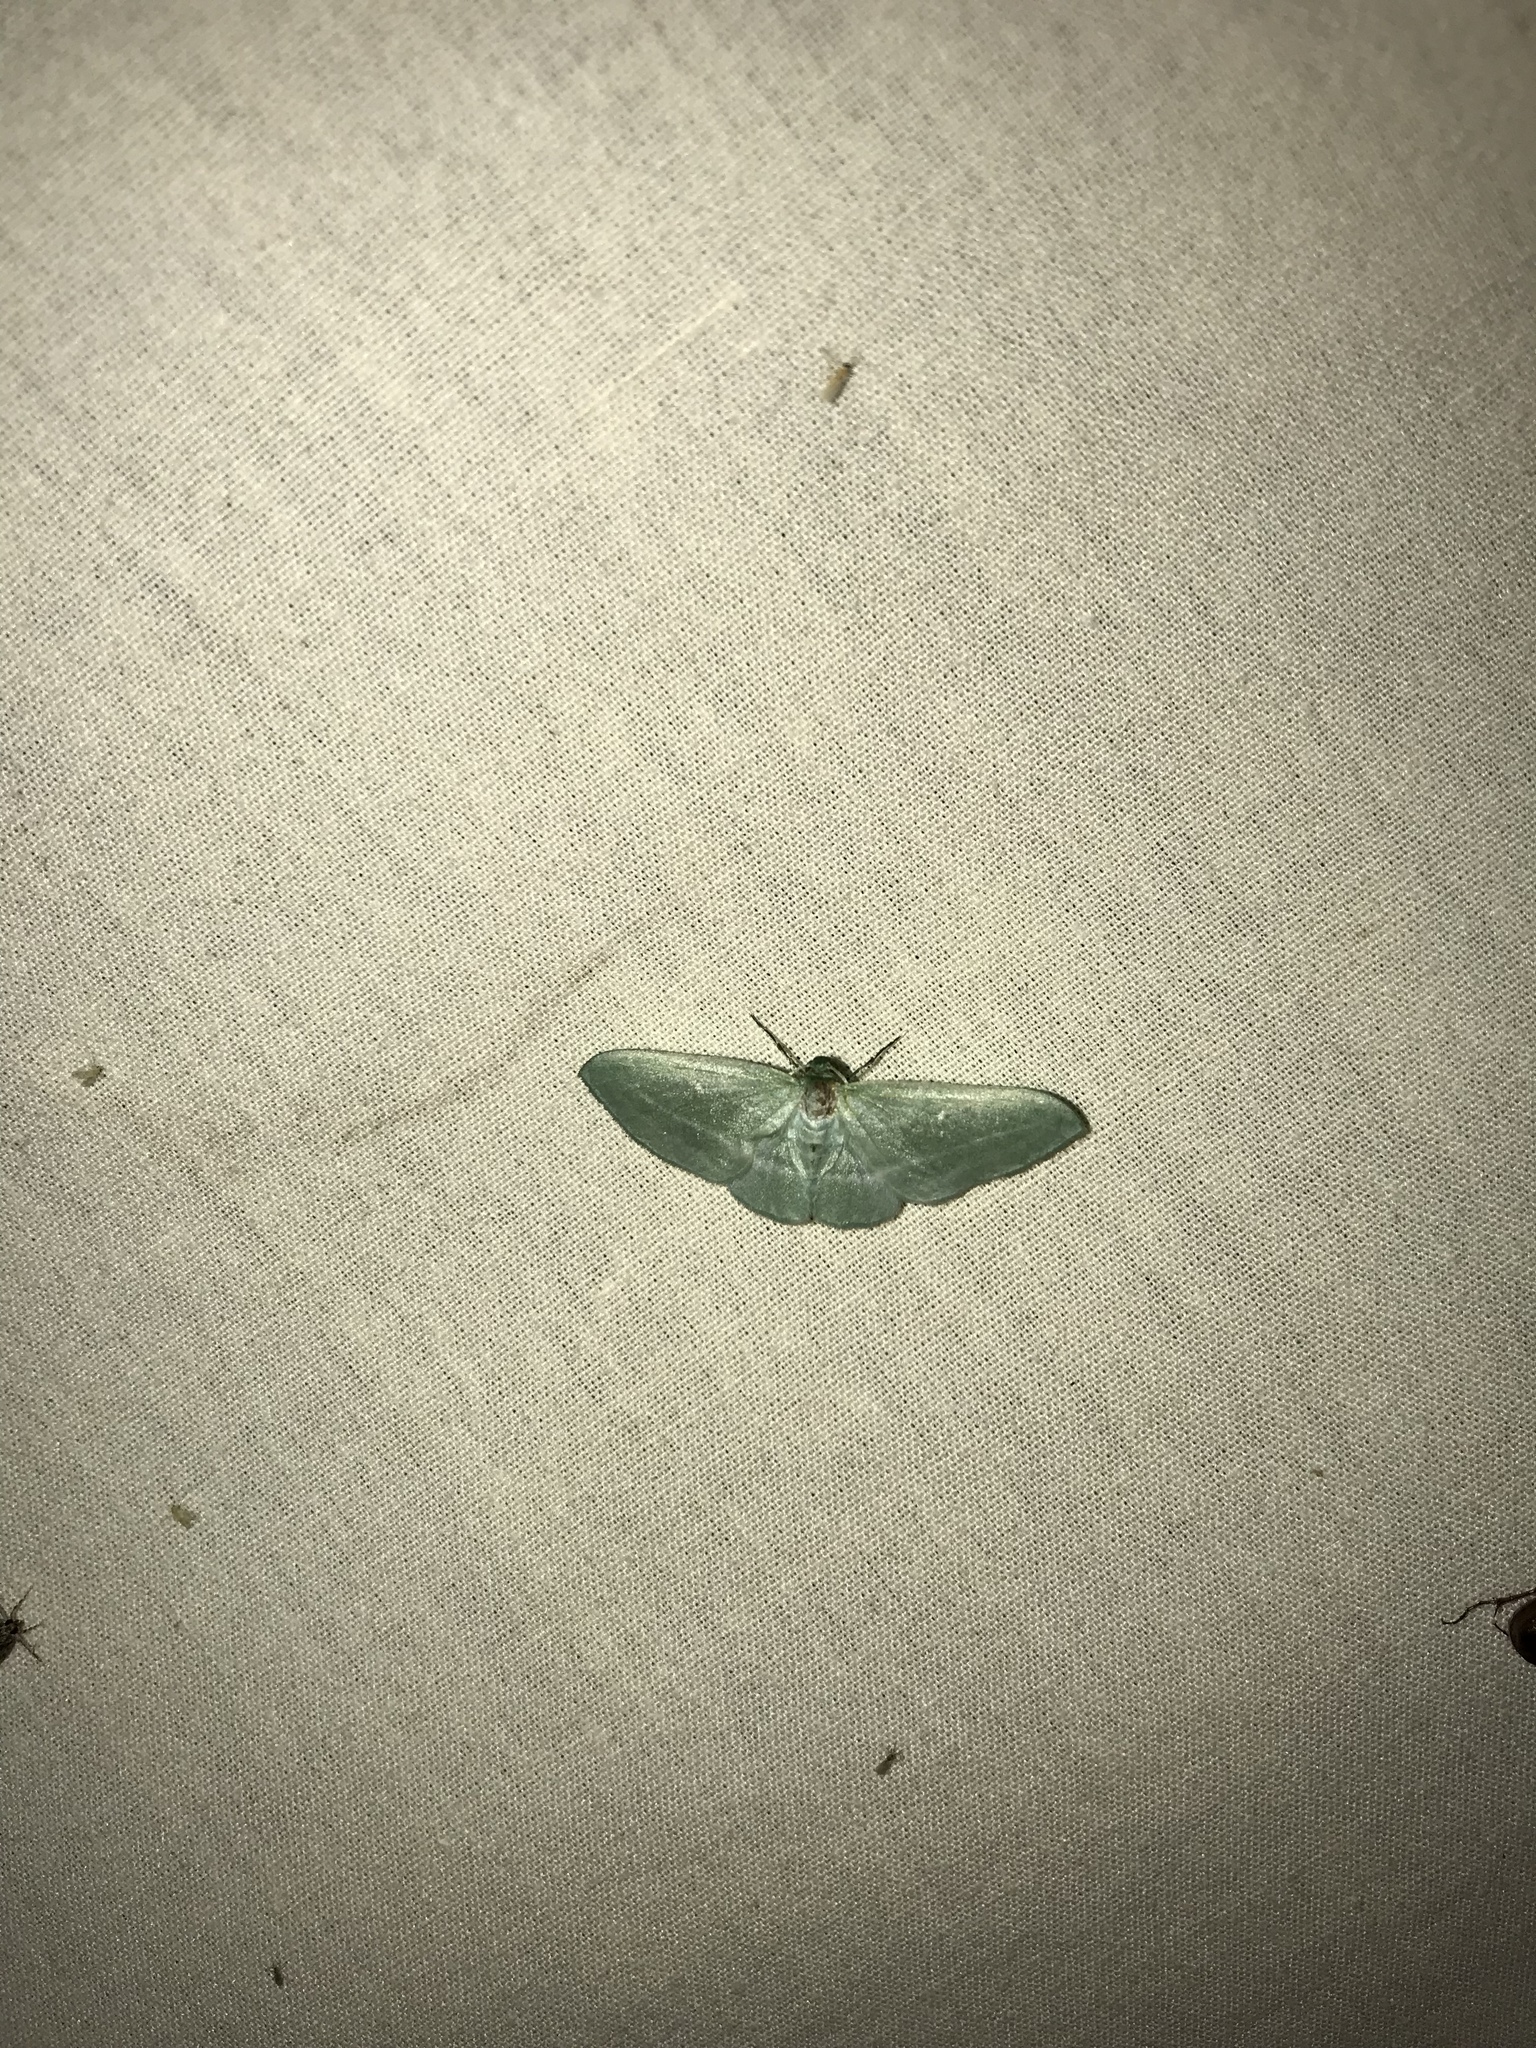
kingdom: Animalia
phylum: Arthropoda
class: Insecta
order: Lepidoptera
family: Geometridae
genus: Dyspteris
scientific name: Dyspteris abortivaria
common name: Bad-wing
